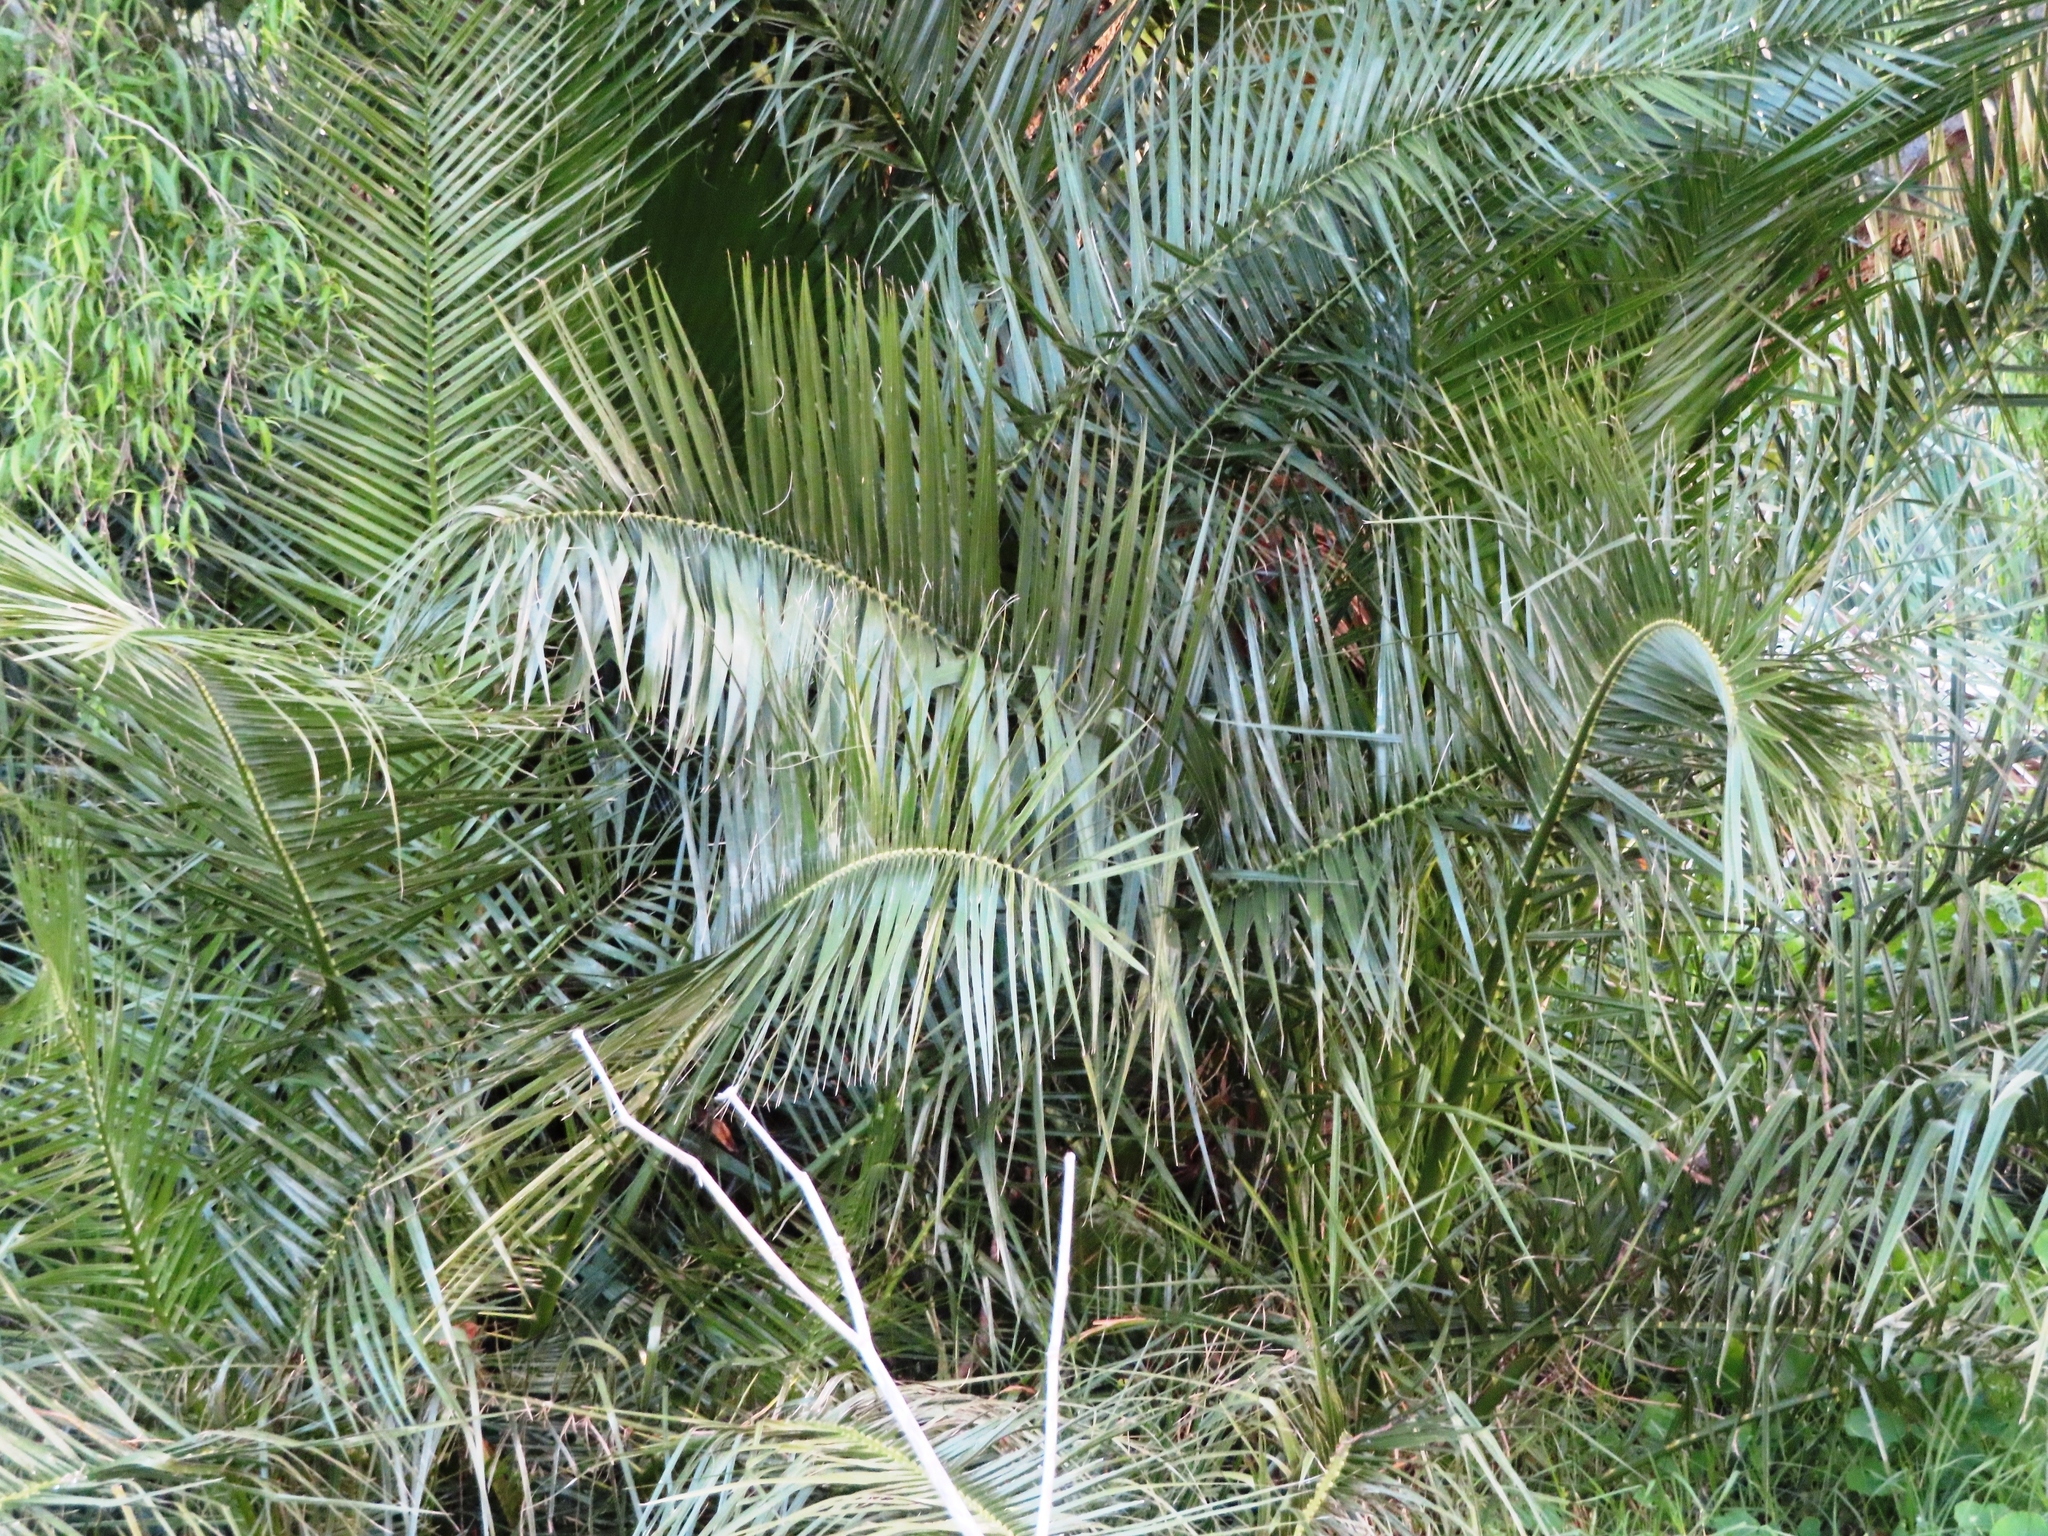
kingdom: Plantae
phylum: Tracheophyta
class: Liliopsida
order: Arecales
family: Arecaceae
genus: Phoenix
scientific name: Phoenix reclinata
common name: Senegal date palm
